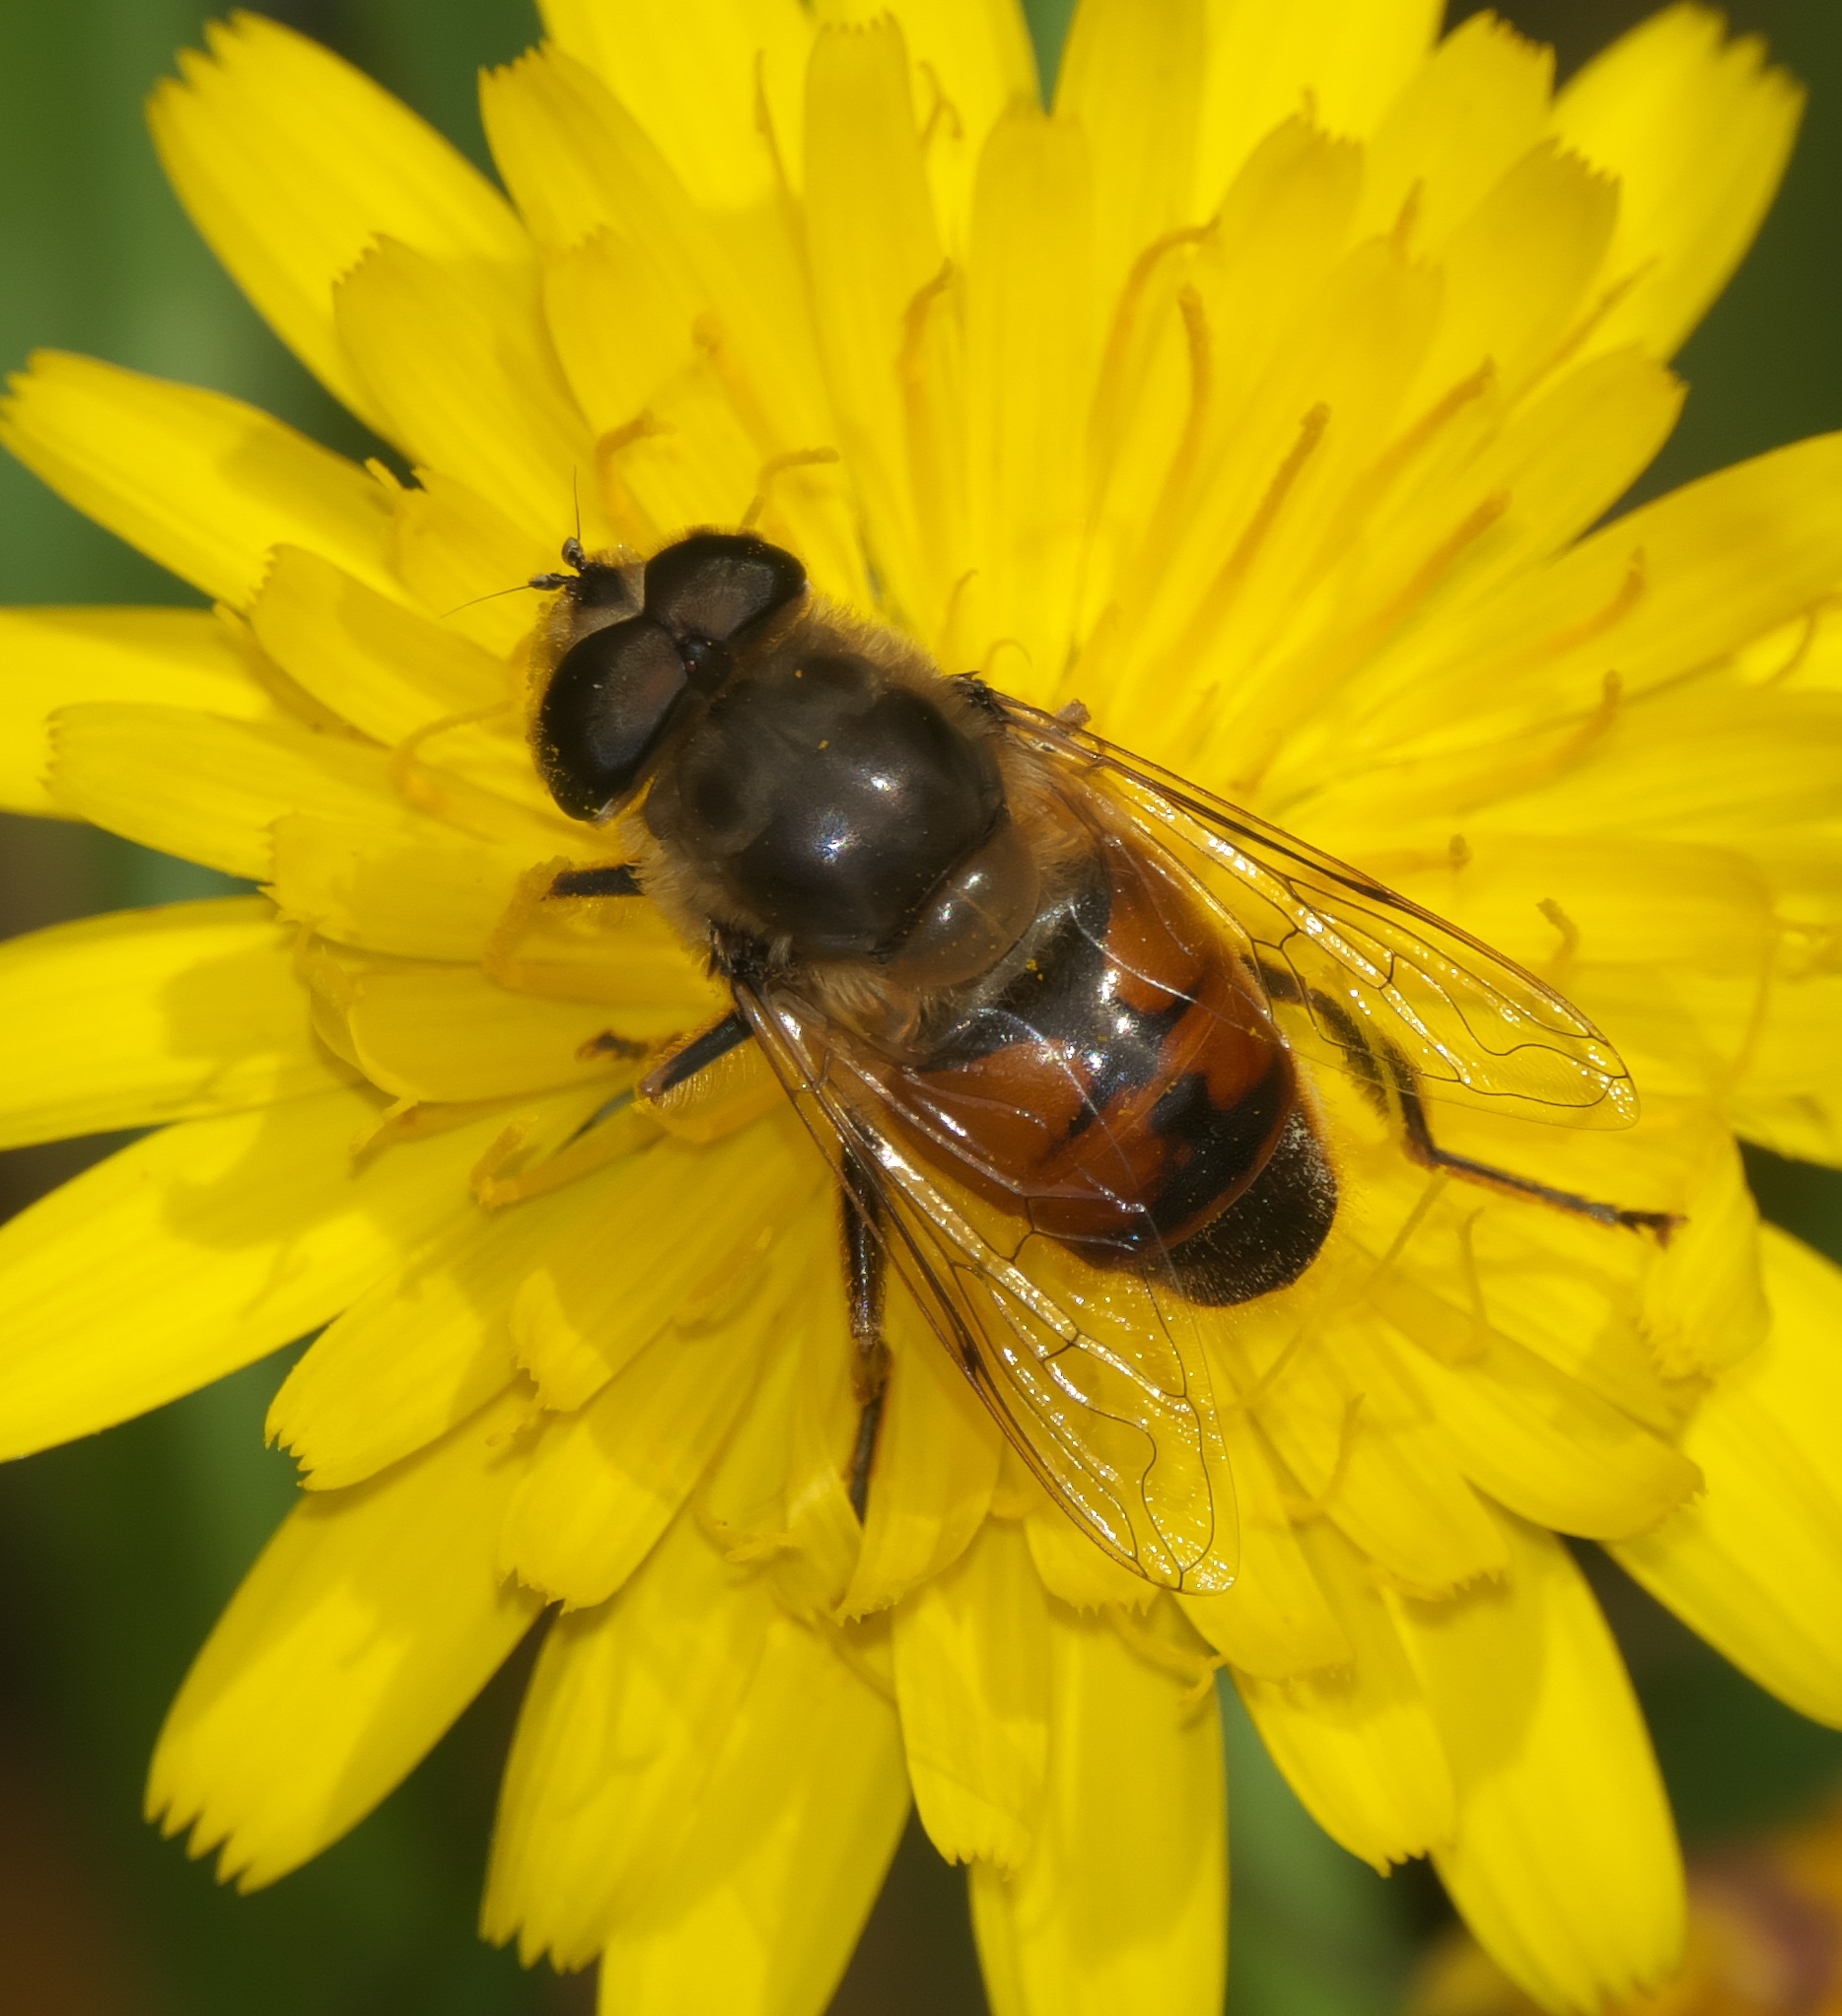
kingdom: Animalia
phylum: Arthropoda
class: Insecta
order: Diptera
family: Syrphidae
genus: Eristalis
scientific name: Eristalis tenax
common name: Drone fly
